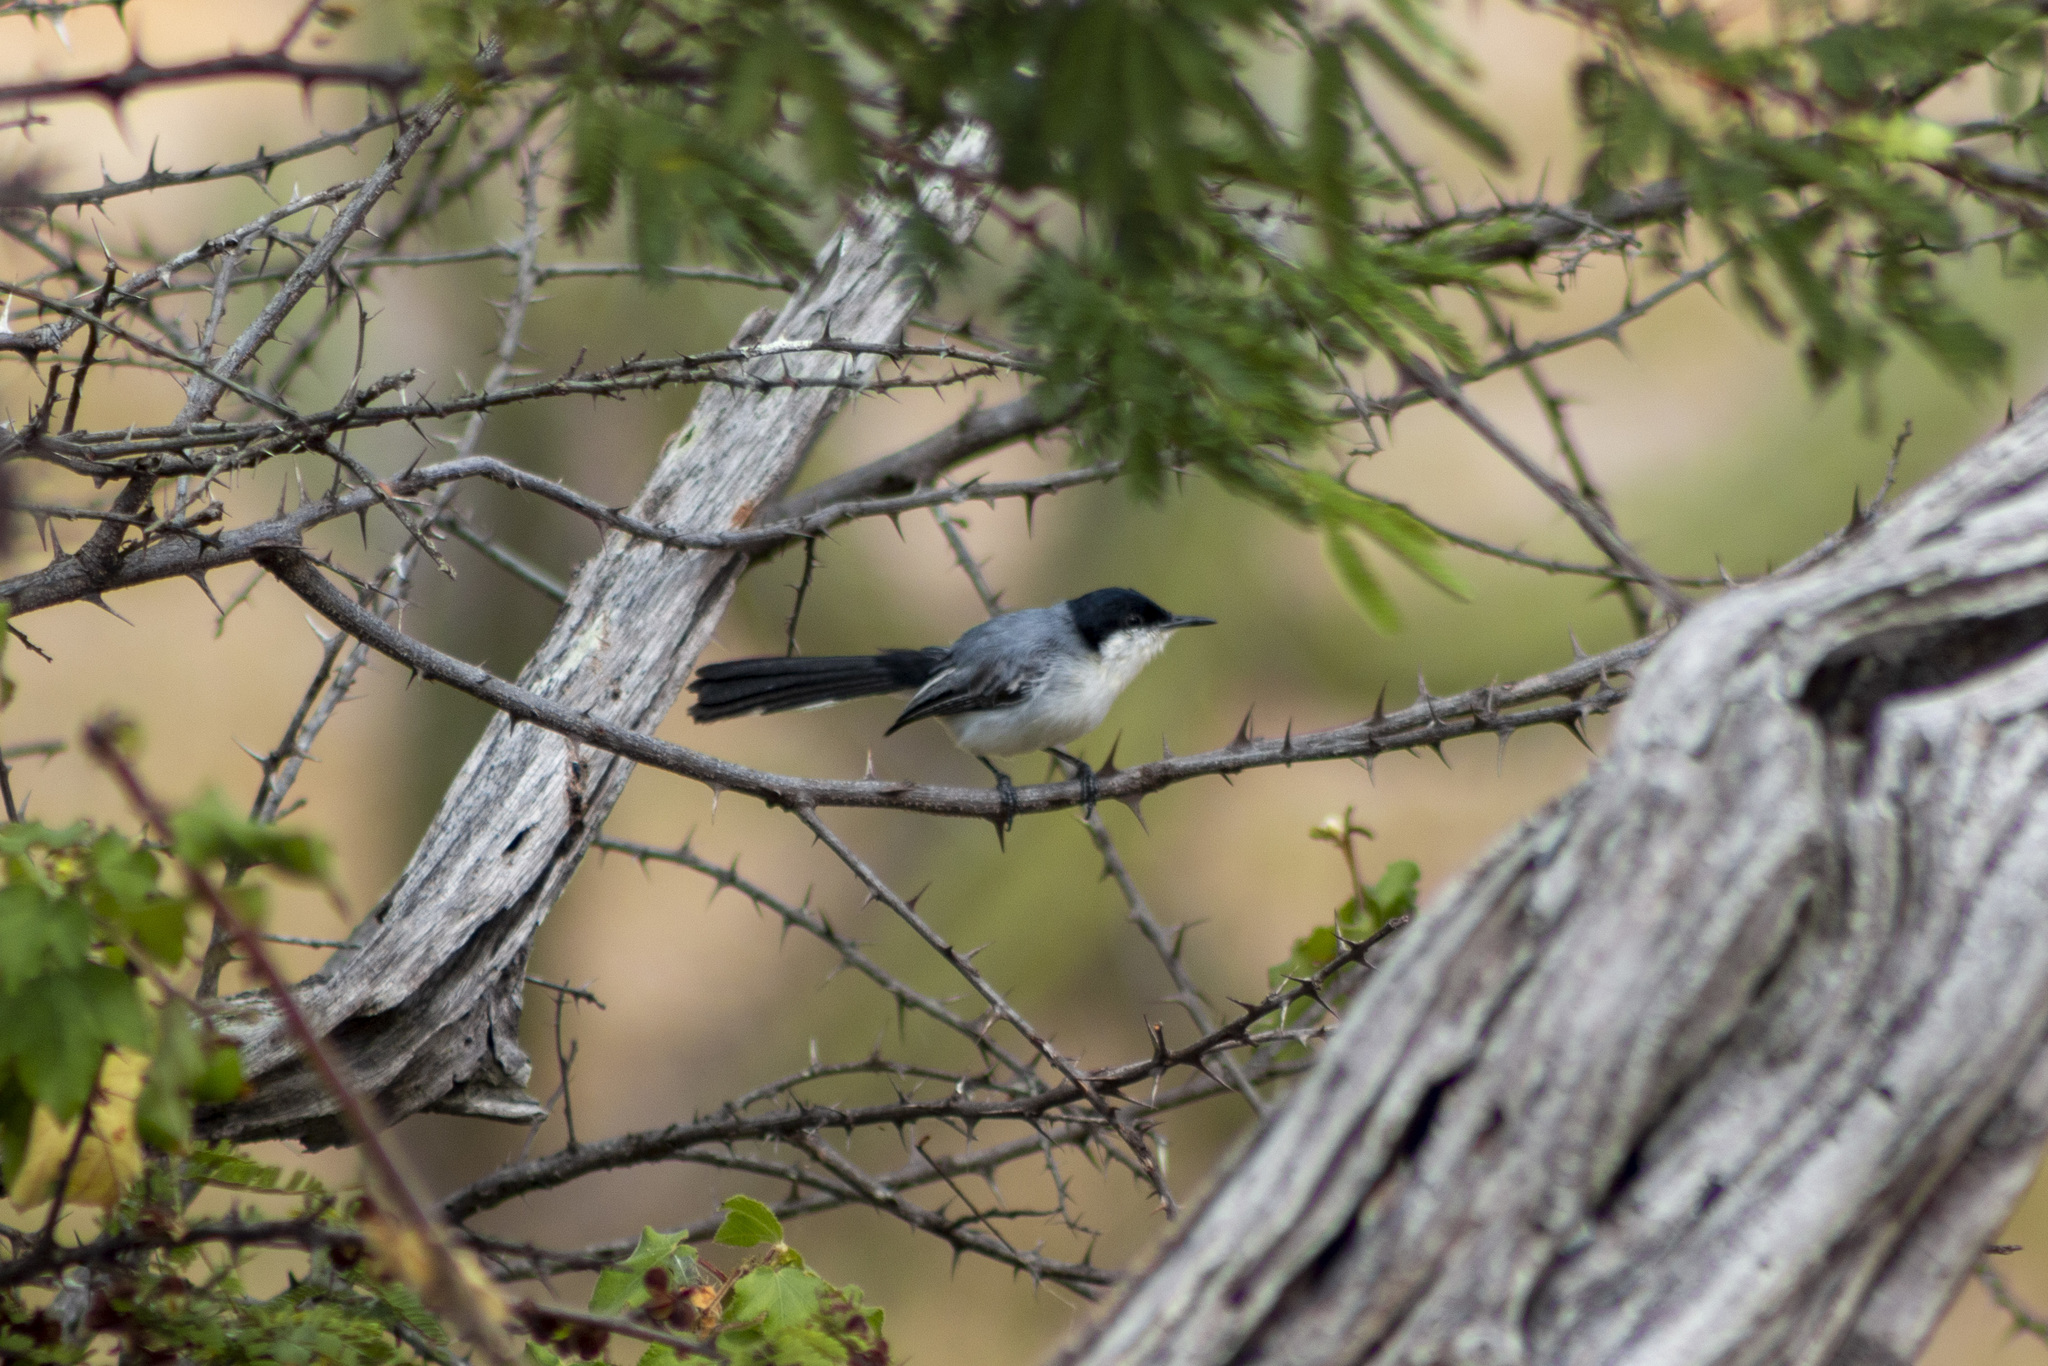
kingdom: Animalia
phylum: Chordata
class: Aves
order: Passeriformes
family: Polioptilidae
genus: Polioptila
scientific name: Polioptila plumbea
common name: Tropical gnatcatcher
